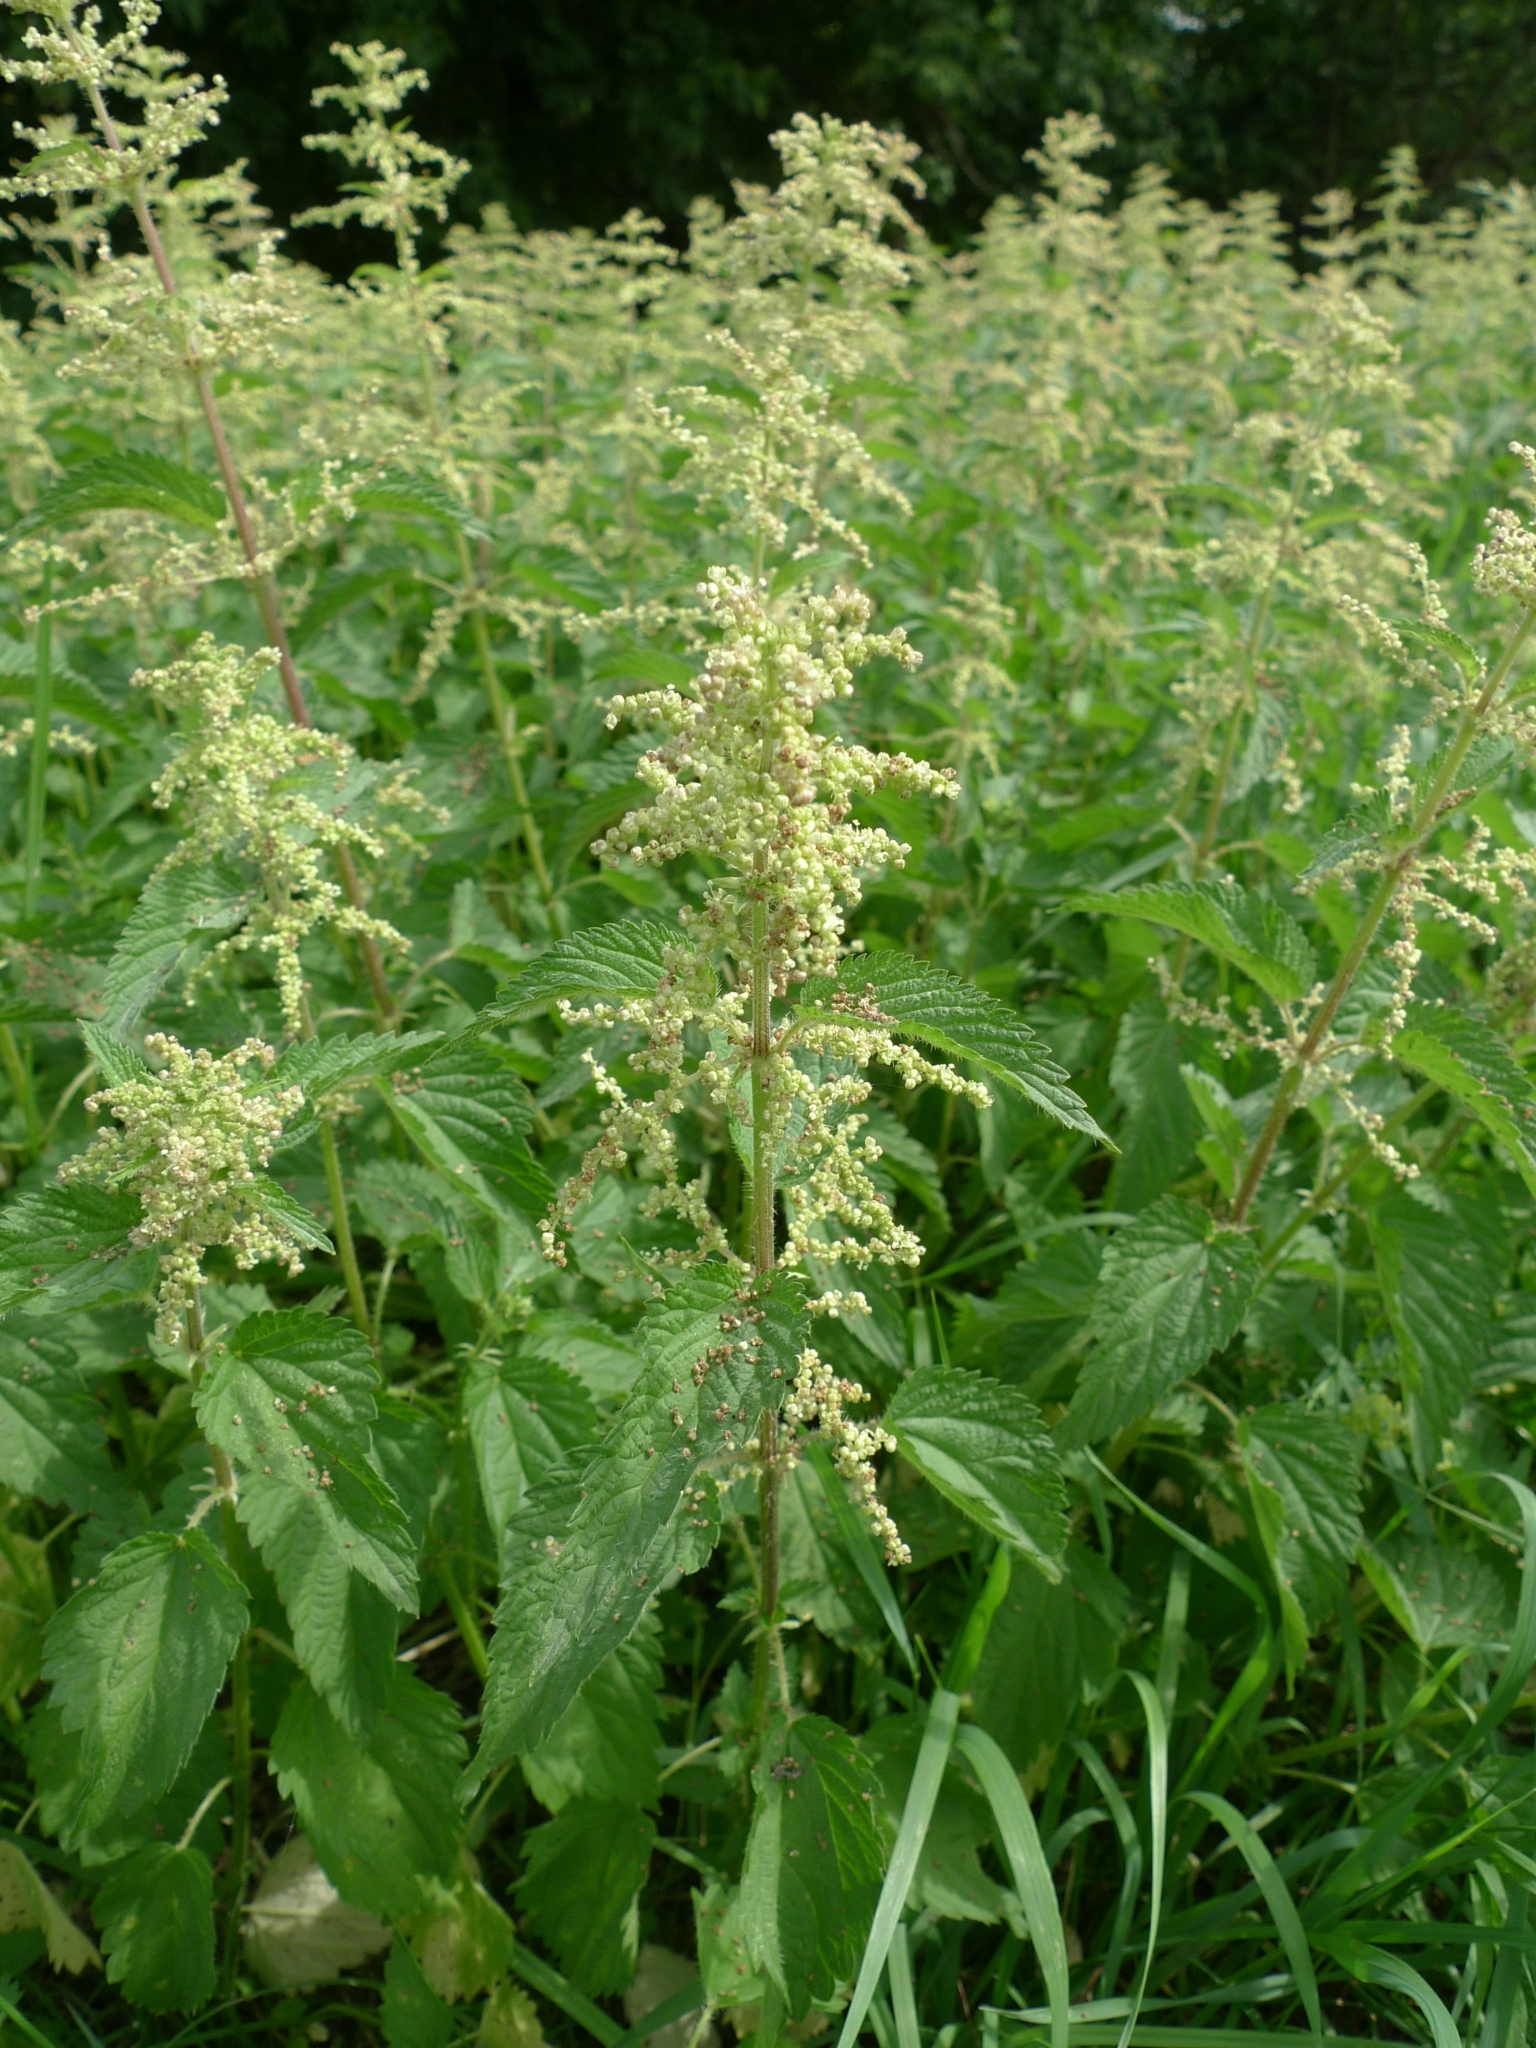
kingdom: Plantae
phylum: Tracheophyta
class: Magnoliopsida
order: Rosales
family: Urticaceae
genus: Urtica
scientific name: Urtica dioica
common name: Common nettle
